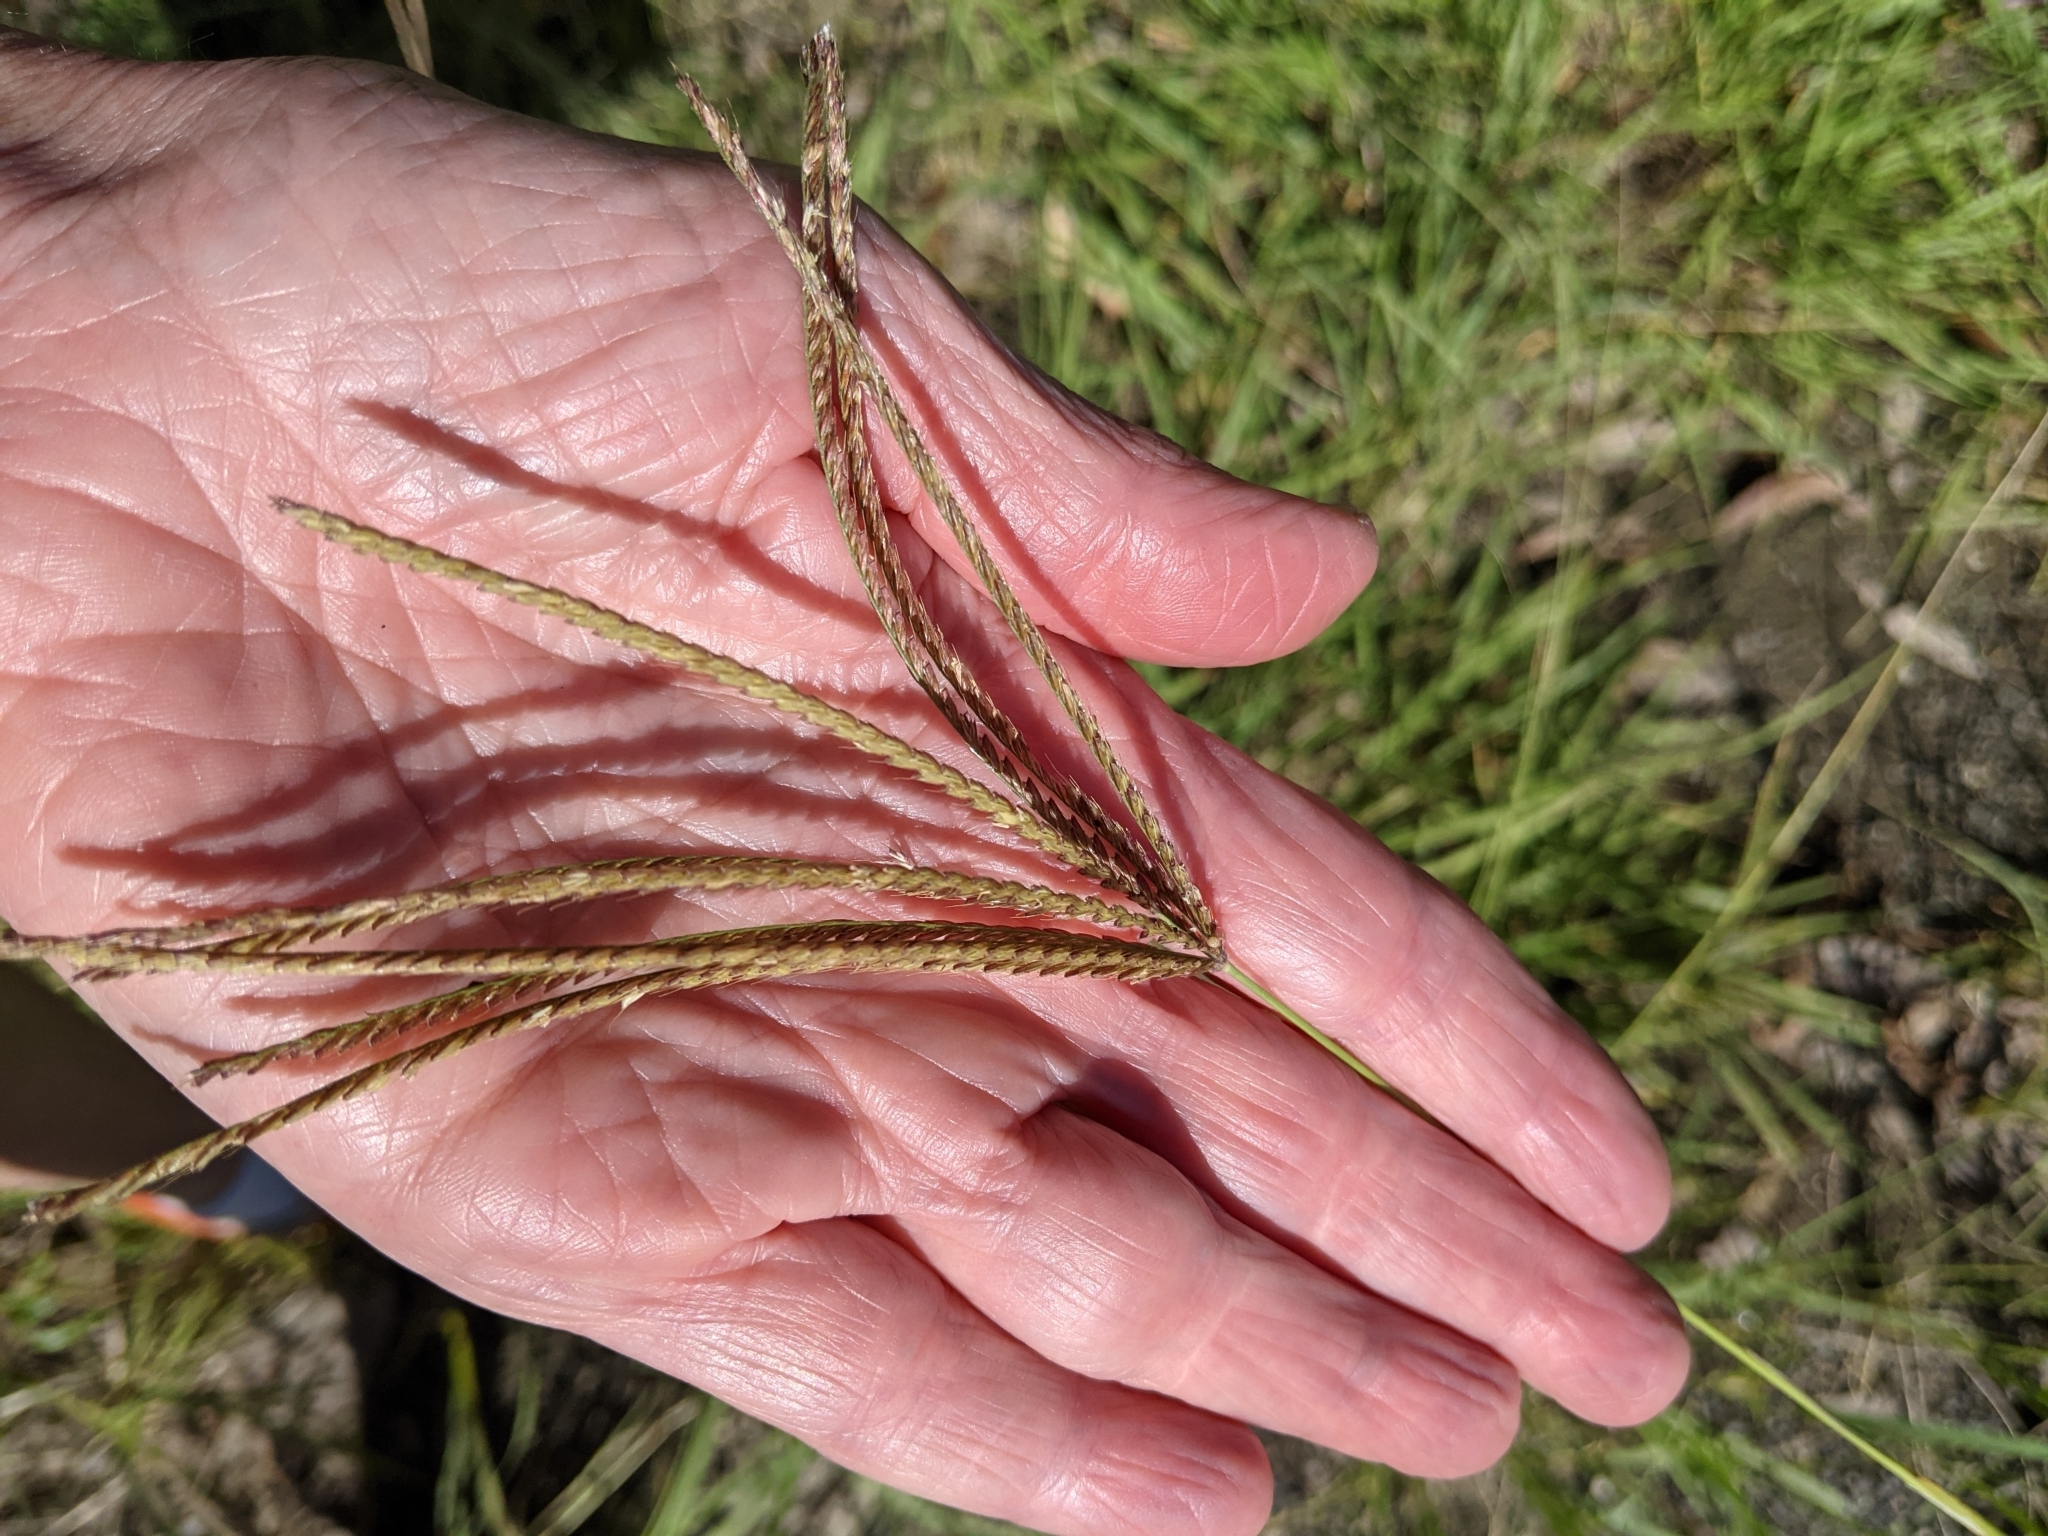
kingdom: Plantae
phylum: Tracheophyta
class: Liliopsida
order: Poales
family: Poaceae
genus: Chloris
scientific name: Chloris gayana
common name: Rhodes grass
